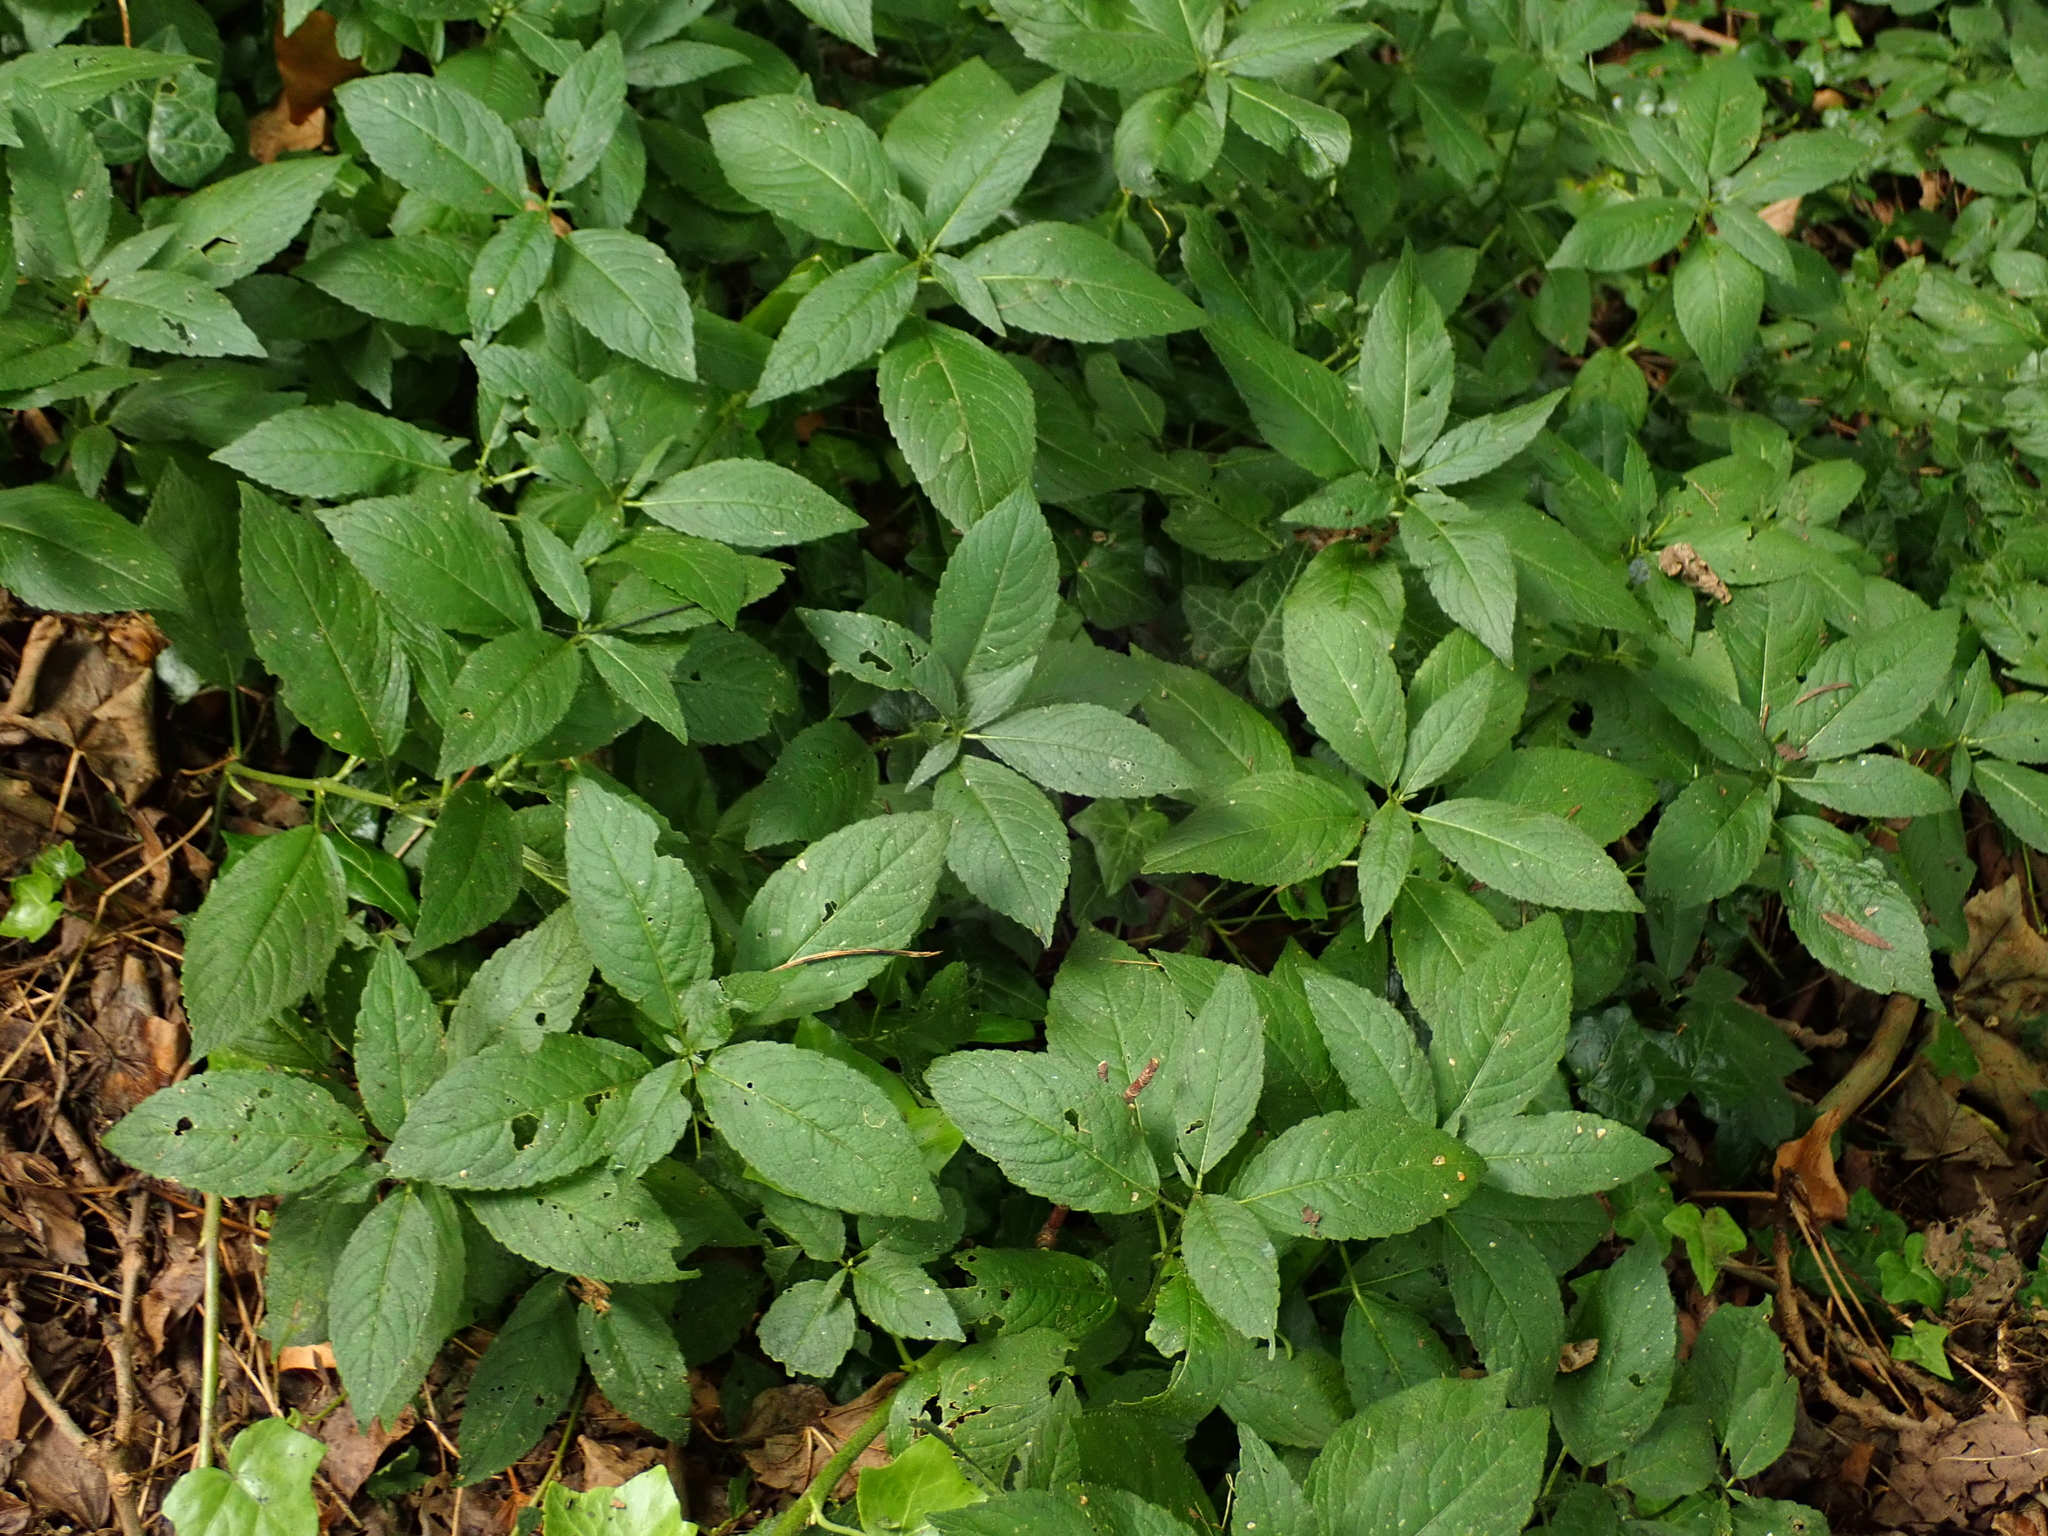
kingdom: Plantae
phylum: Tracheophyta
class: Magnoliopsida
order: Malpighiales
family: Euphorbiaceae
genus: Mercurialis
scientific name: Mercurialis perennis
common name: Dog mercury
